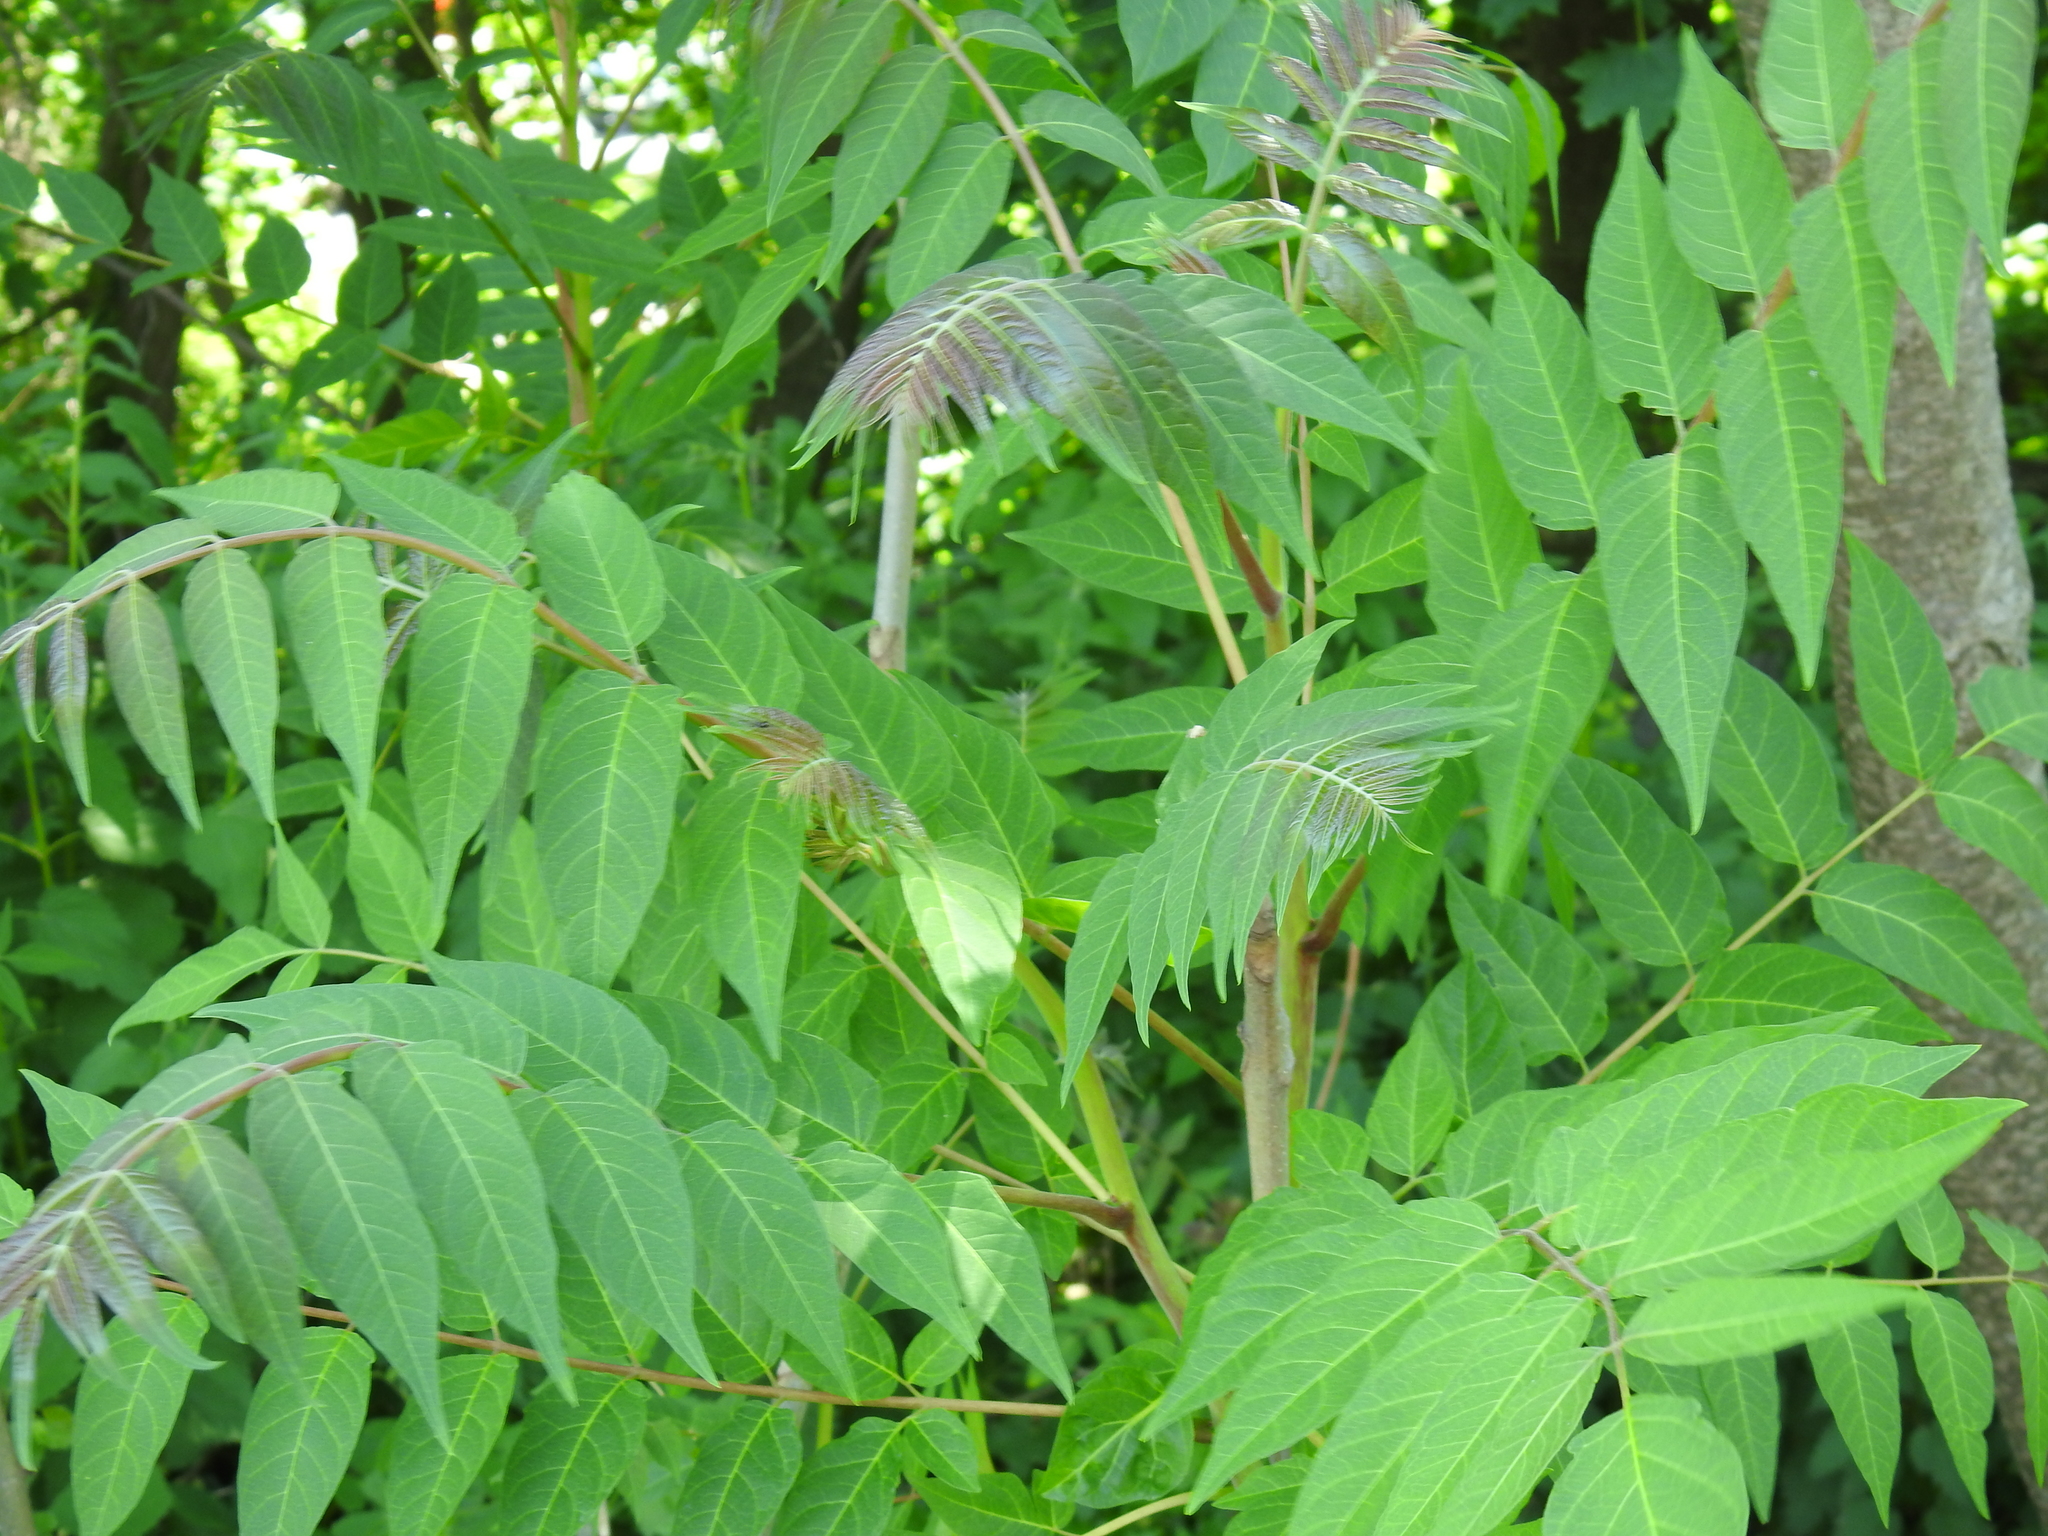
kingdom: Plantae
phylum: Tracheophyta
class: Magnoliopsida
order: Sapindales
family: Simaroubaceae
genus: Ailanthus
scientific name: Ailanthus altissima
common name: Tree-of-heaven
